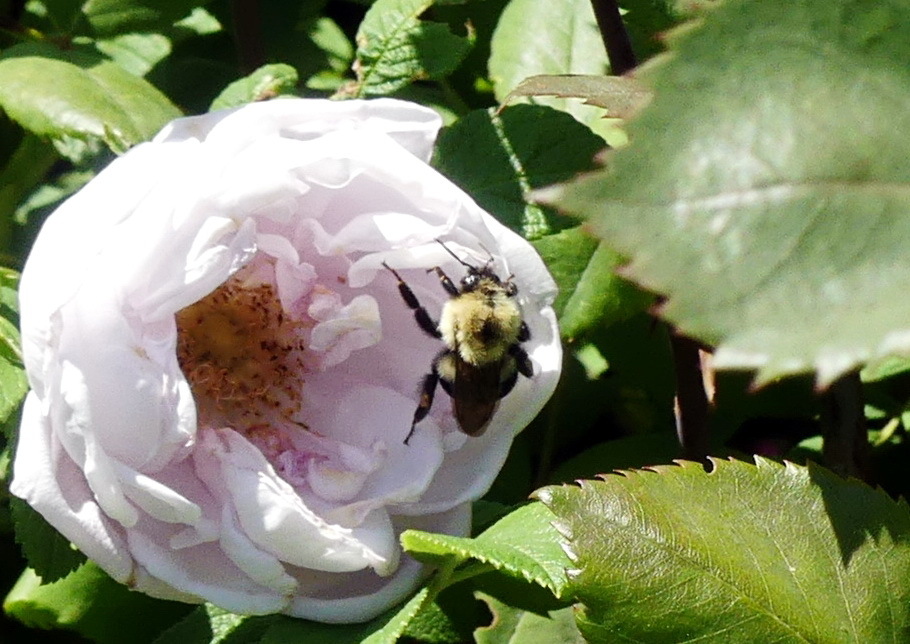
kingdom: Animalia
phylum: Arthropoda
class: Insecta
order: Hymenoptera
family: Apidae
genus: Bombus
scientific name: Bombus bimaculatus
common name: Two-spotted bumble bee
